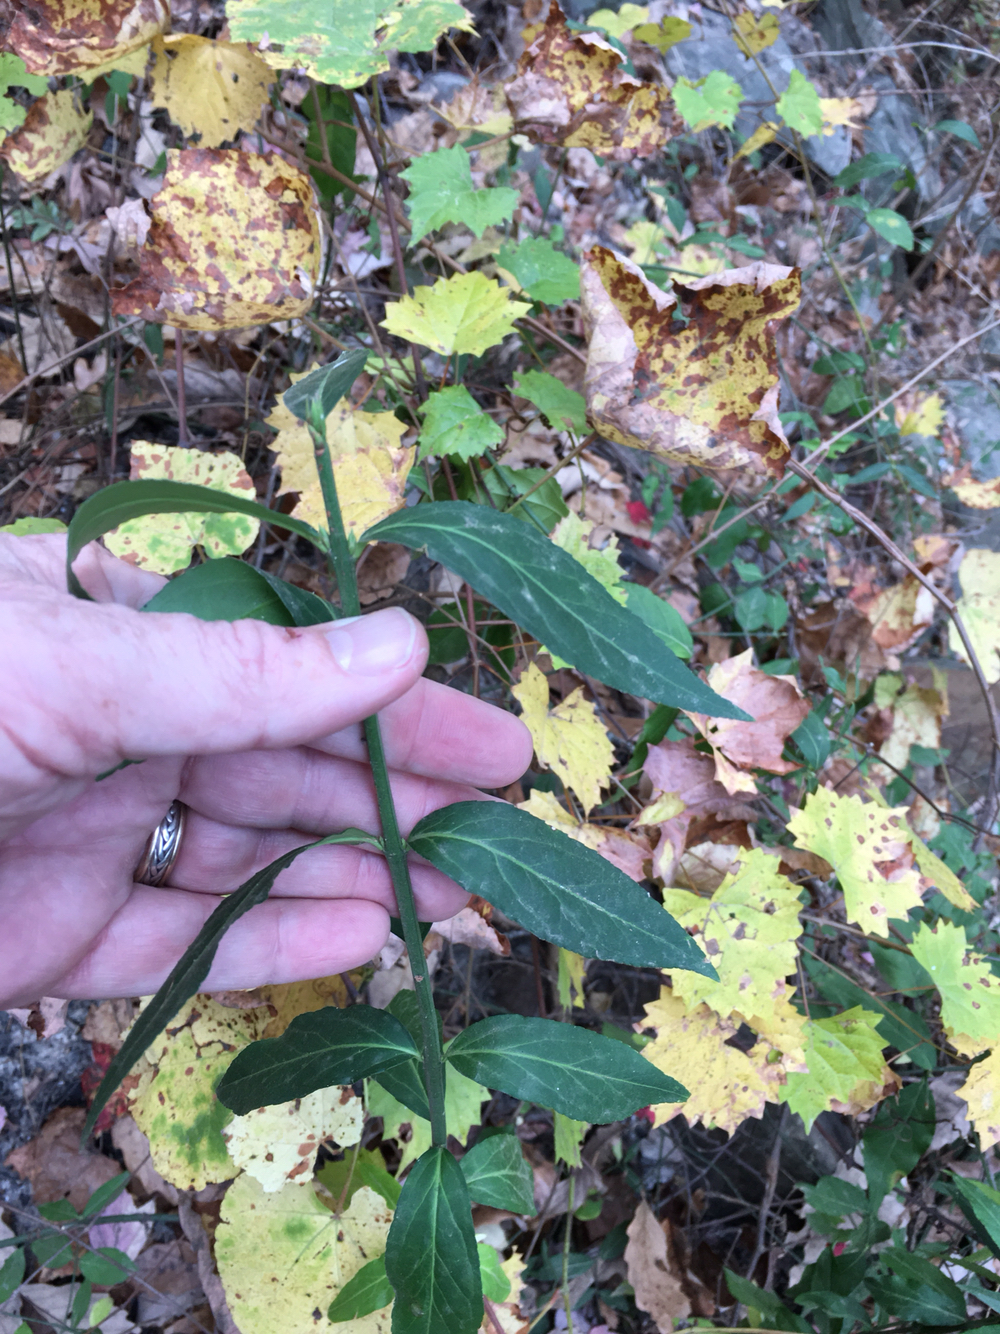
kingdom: Plantae
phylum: Tracheophyta
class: Magnoliopsida
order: Celastrales
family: Celastraceae
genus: Euonymus
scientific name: Euonymus americanus
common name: Bursting-heart
